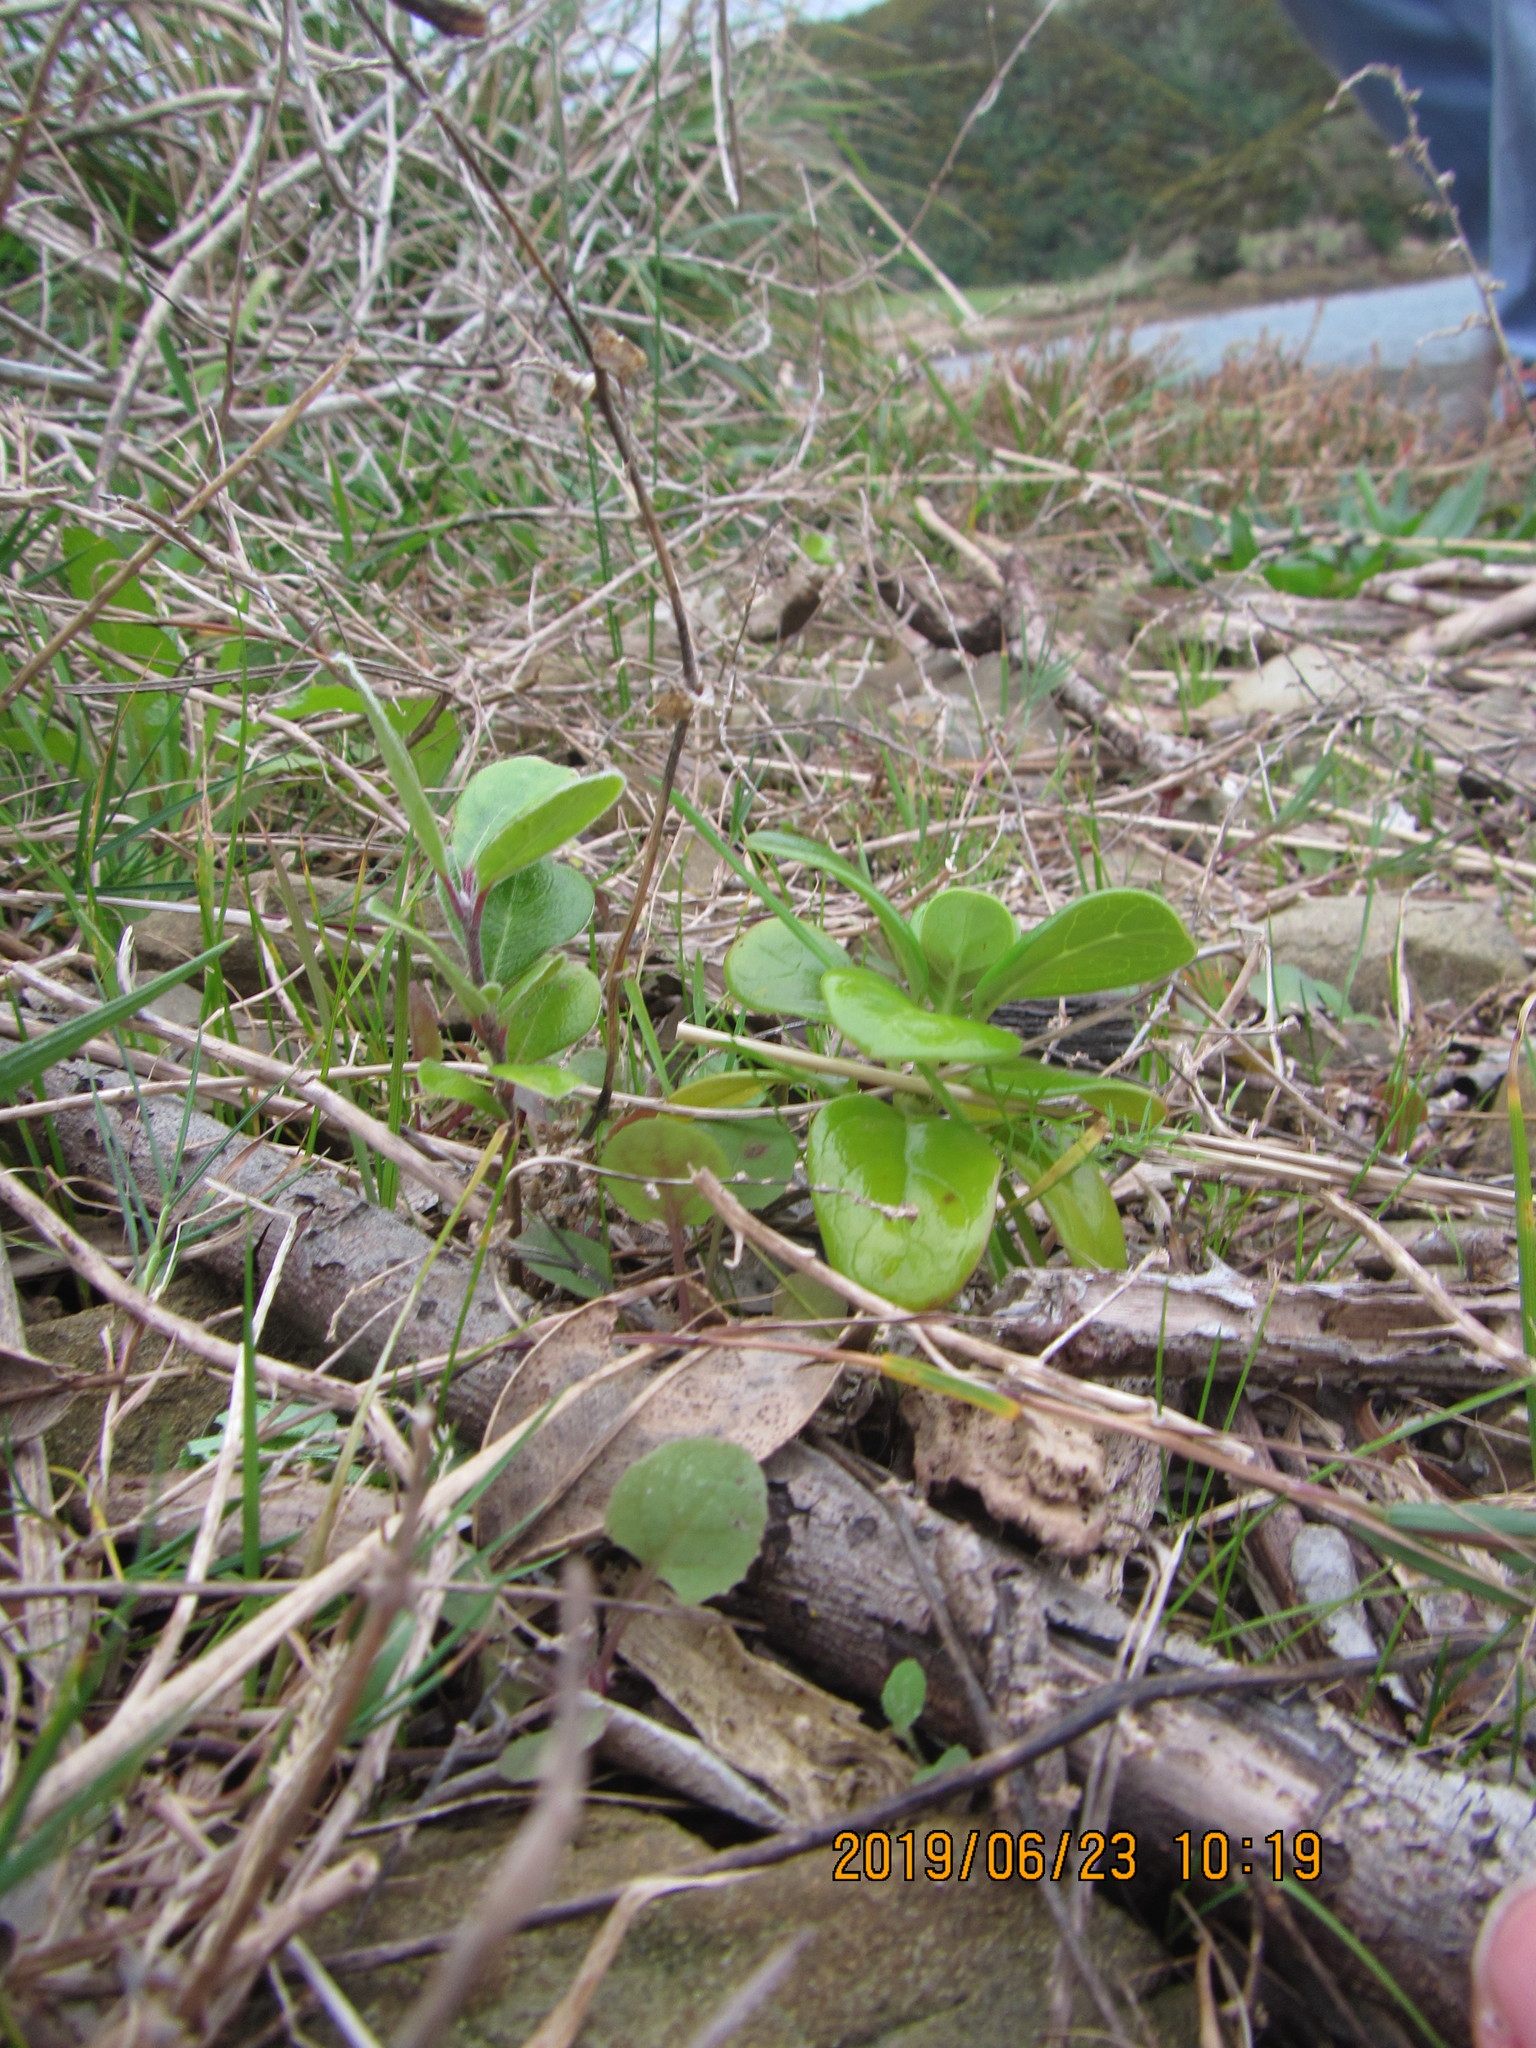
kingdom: Plantae
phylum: Tracheophyta
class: Magnoliopsida
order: Gentianales
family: Rubiaceae
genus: Coprosma
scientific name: Coprosma repens
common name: Tree bedstraw
